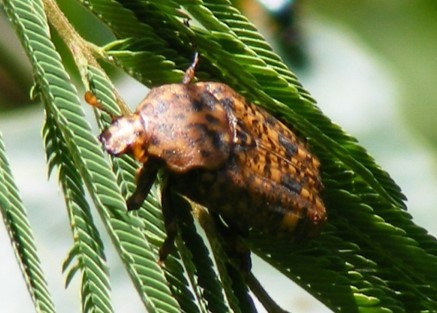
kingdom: Animalia
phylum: Arthropoda
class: Insecta
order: Coleoptera
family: Scarabaeidae
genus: Porphyronota
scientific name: Porphyronota maculatissima
